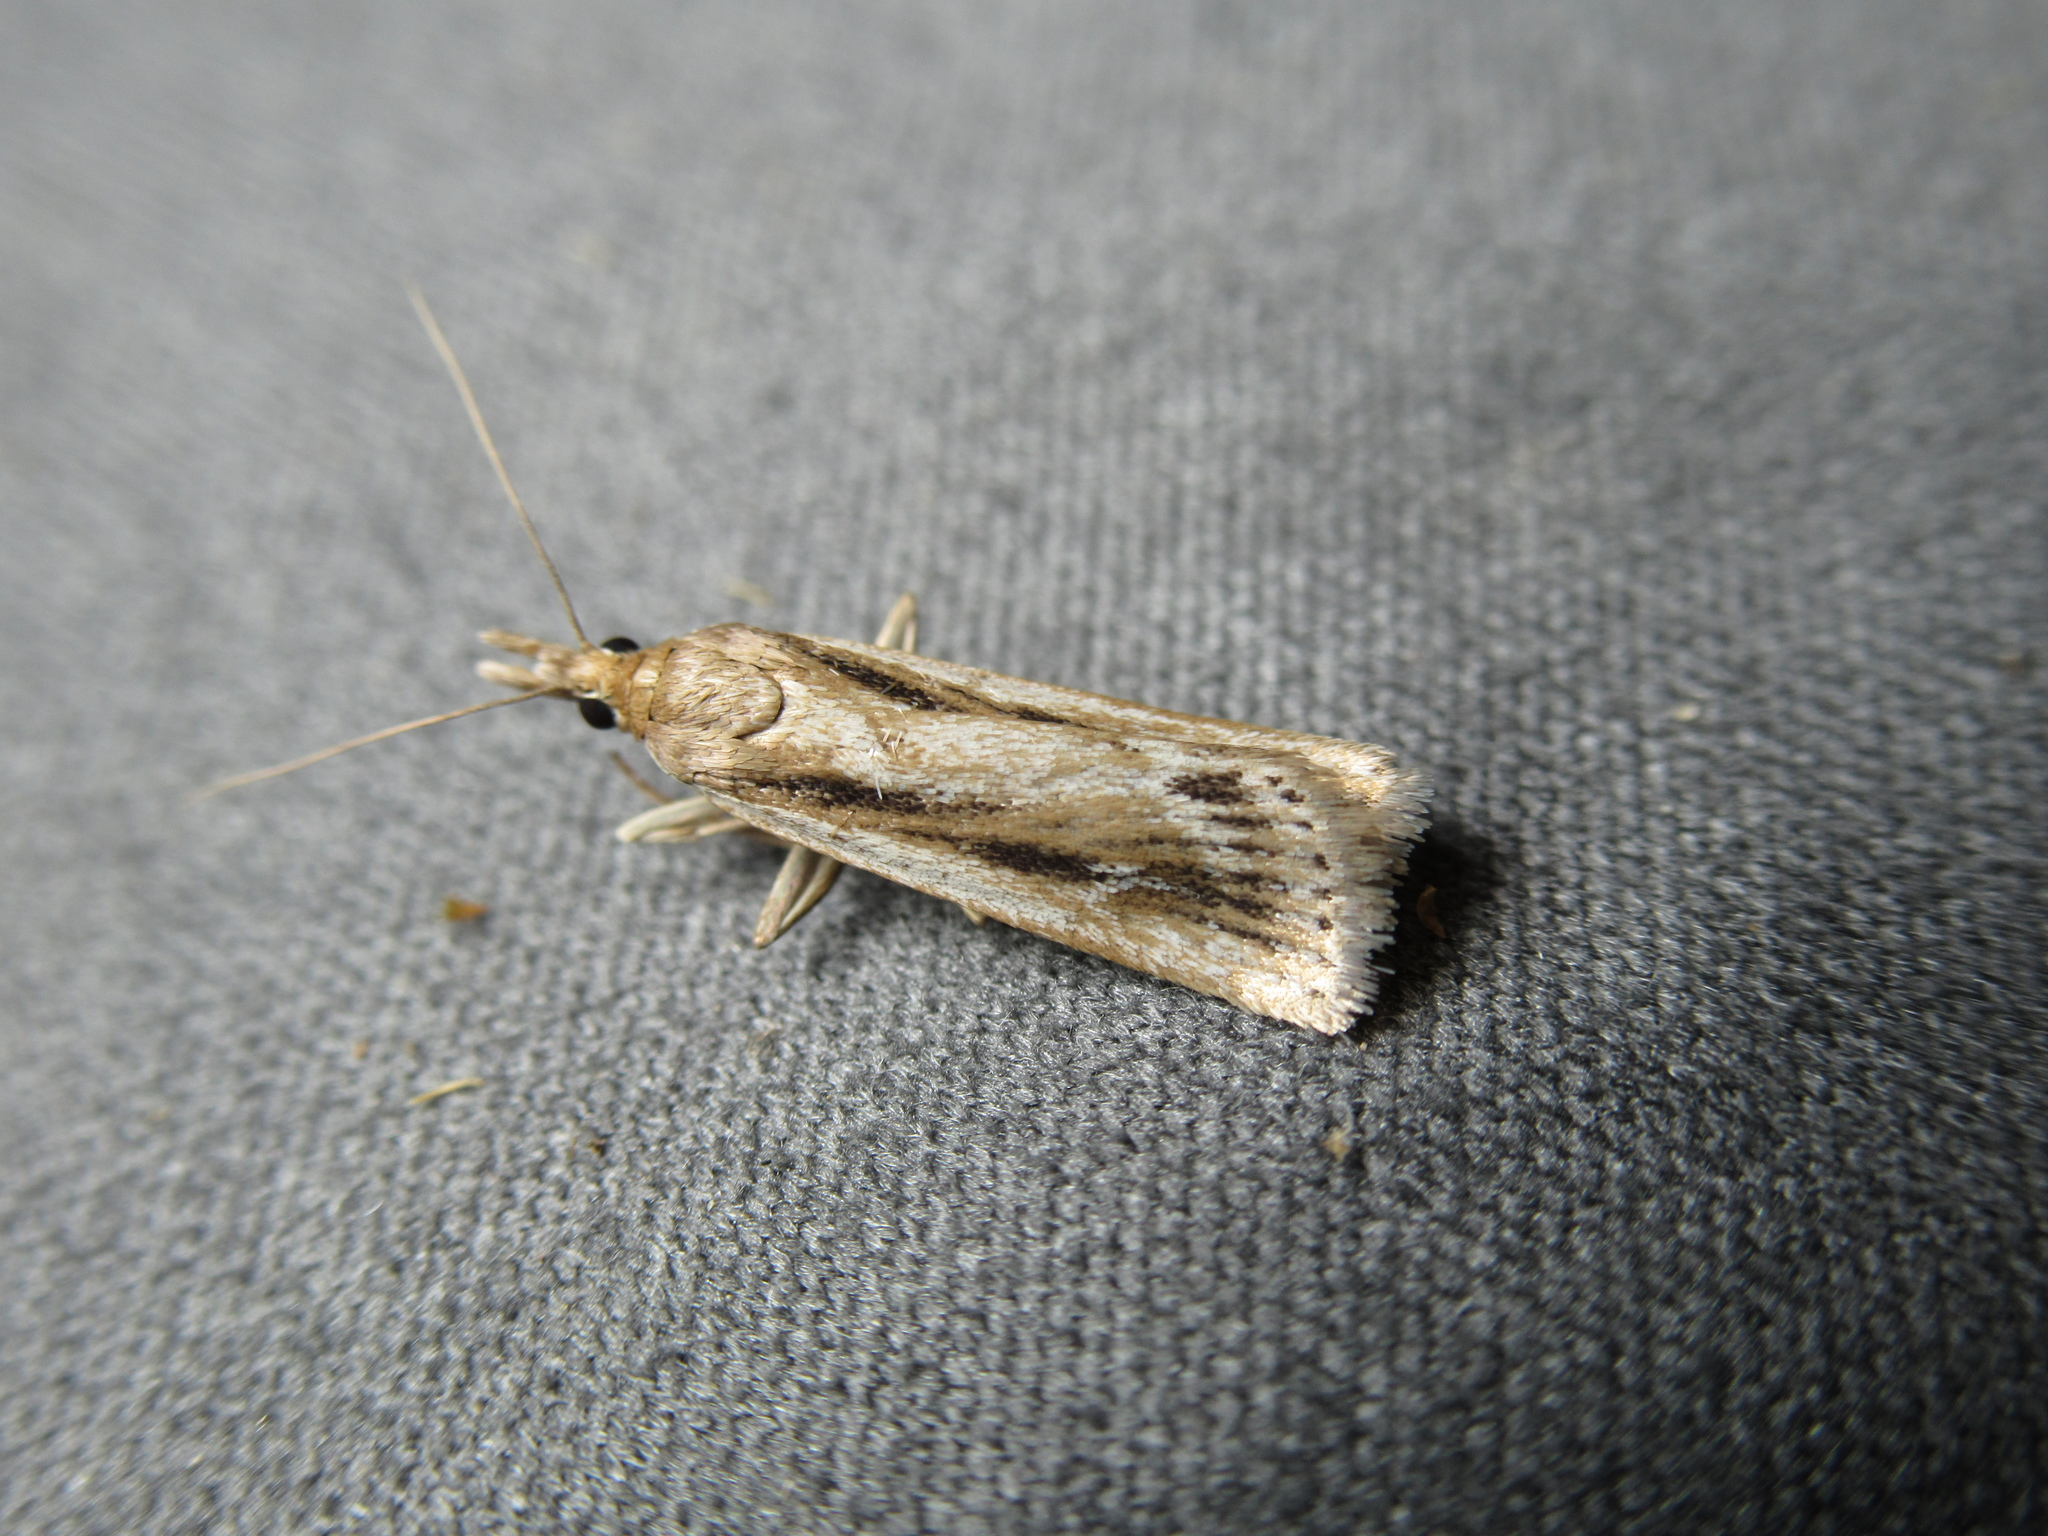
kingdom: Animalia
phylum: Arthropoda
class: Insecta
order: Lepidoptera
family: Crambidae
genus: Eudonia
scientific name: Eudonia sabulosella
